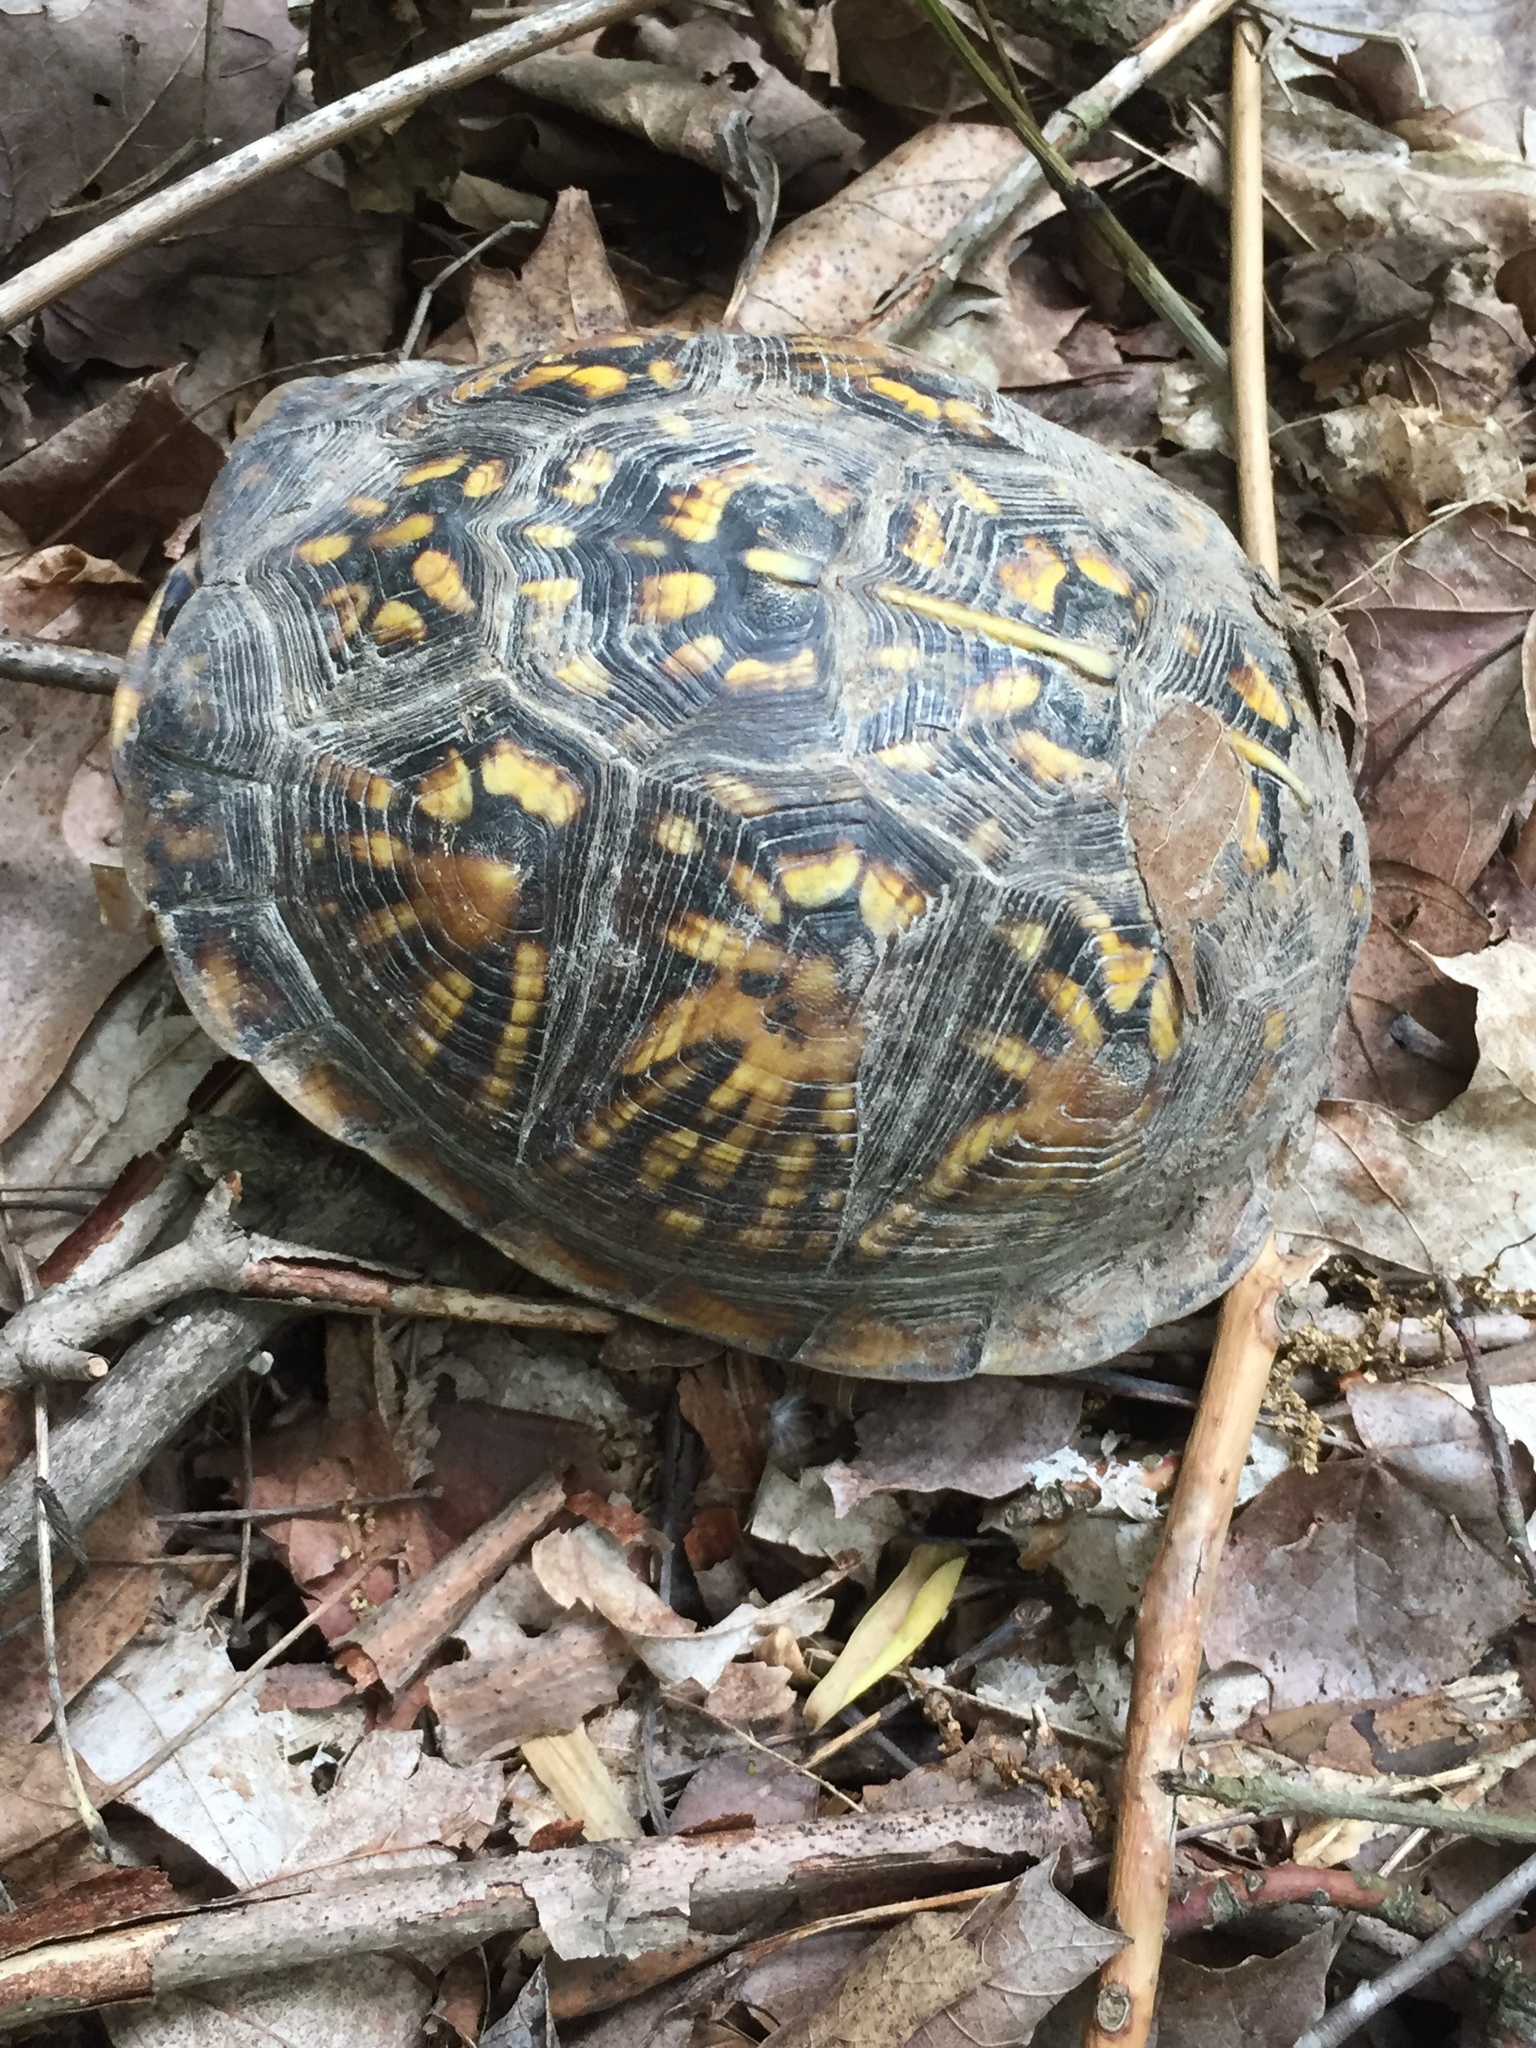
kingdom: Animalia
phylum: Chordata
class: Testudines
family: Emydidae
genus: Terrapene
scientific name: Terrapene carolina
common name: Common box turtle
